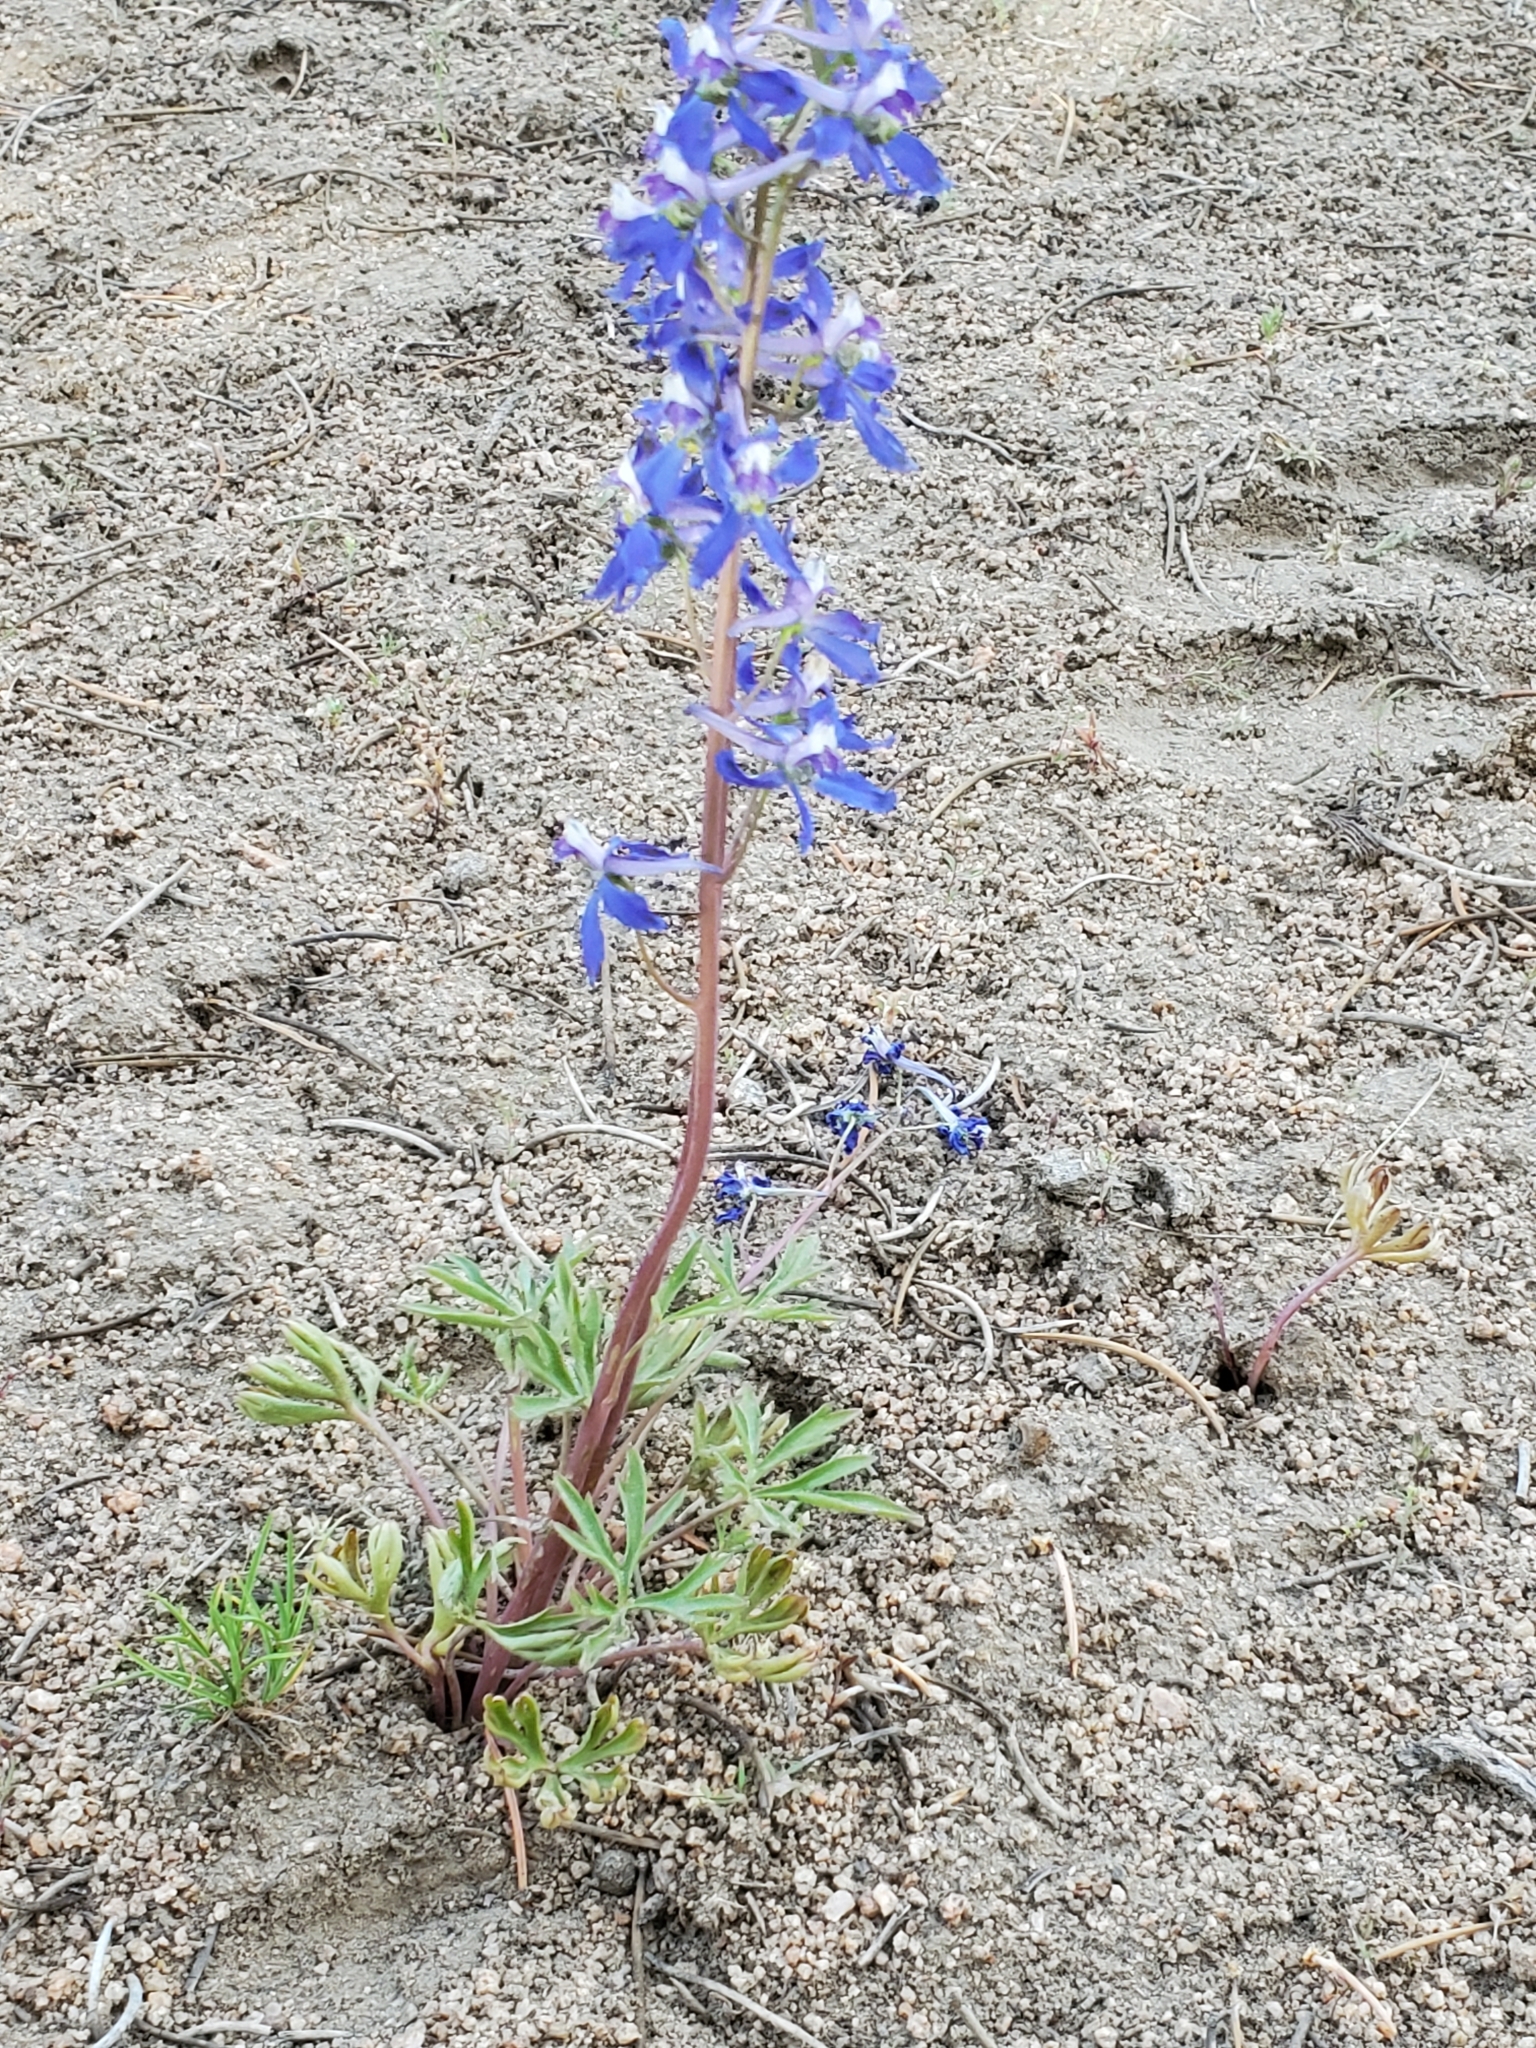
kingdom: Plantae
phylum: Tracheophyta
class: Magnoliopsida
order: Ranunculales
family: Ranunculaceae
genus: Delphinium
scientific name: Delphinium nuttallianum
